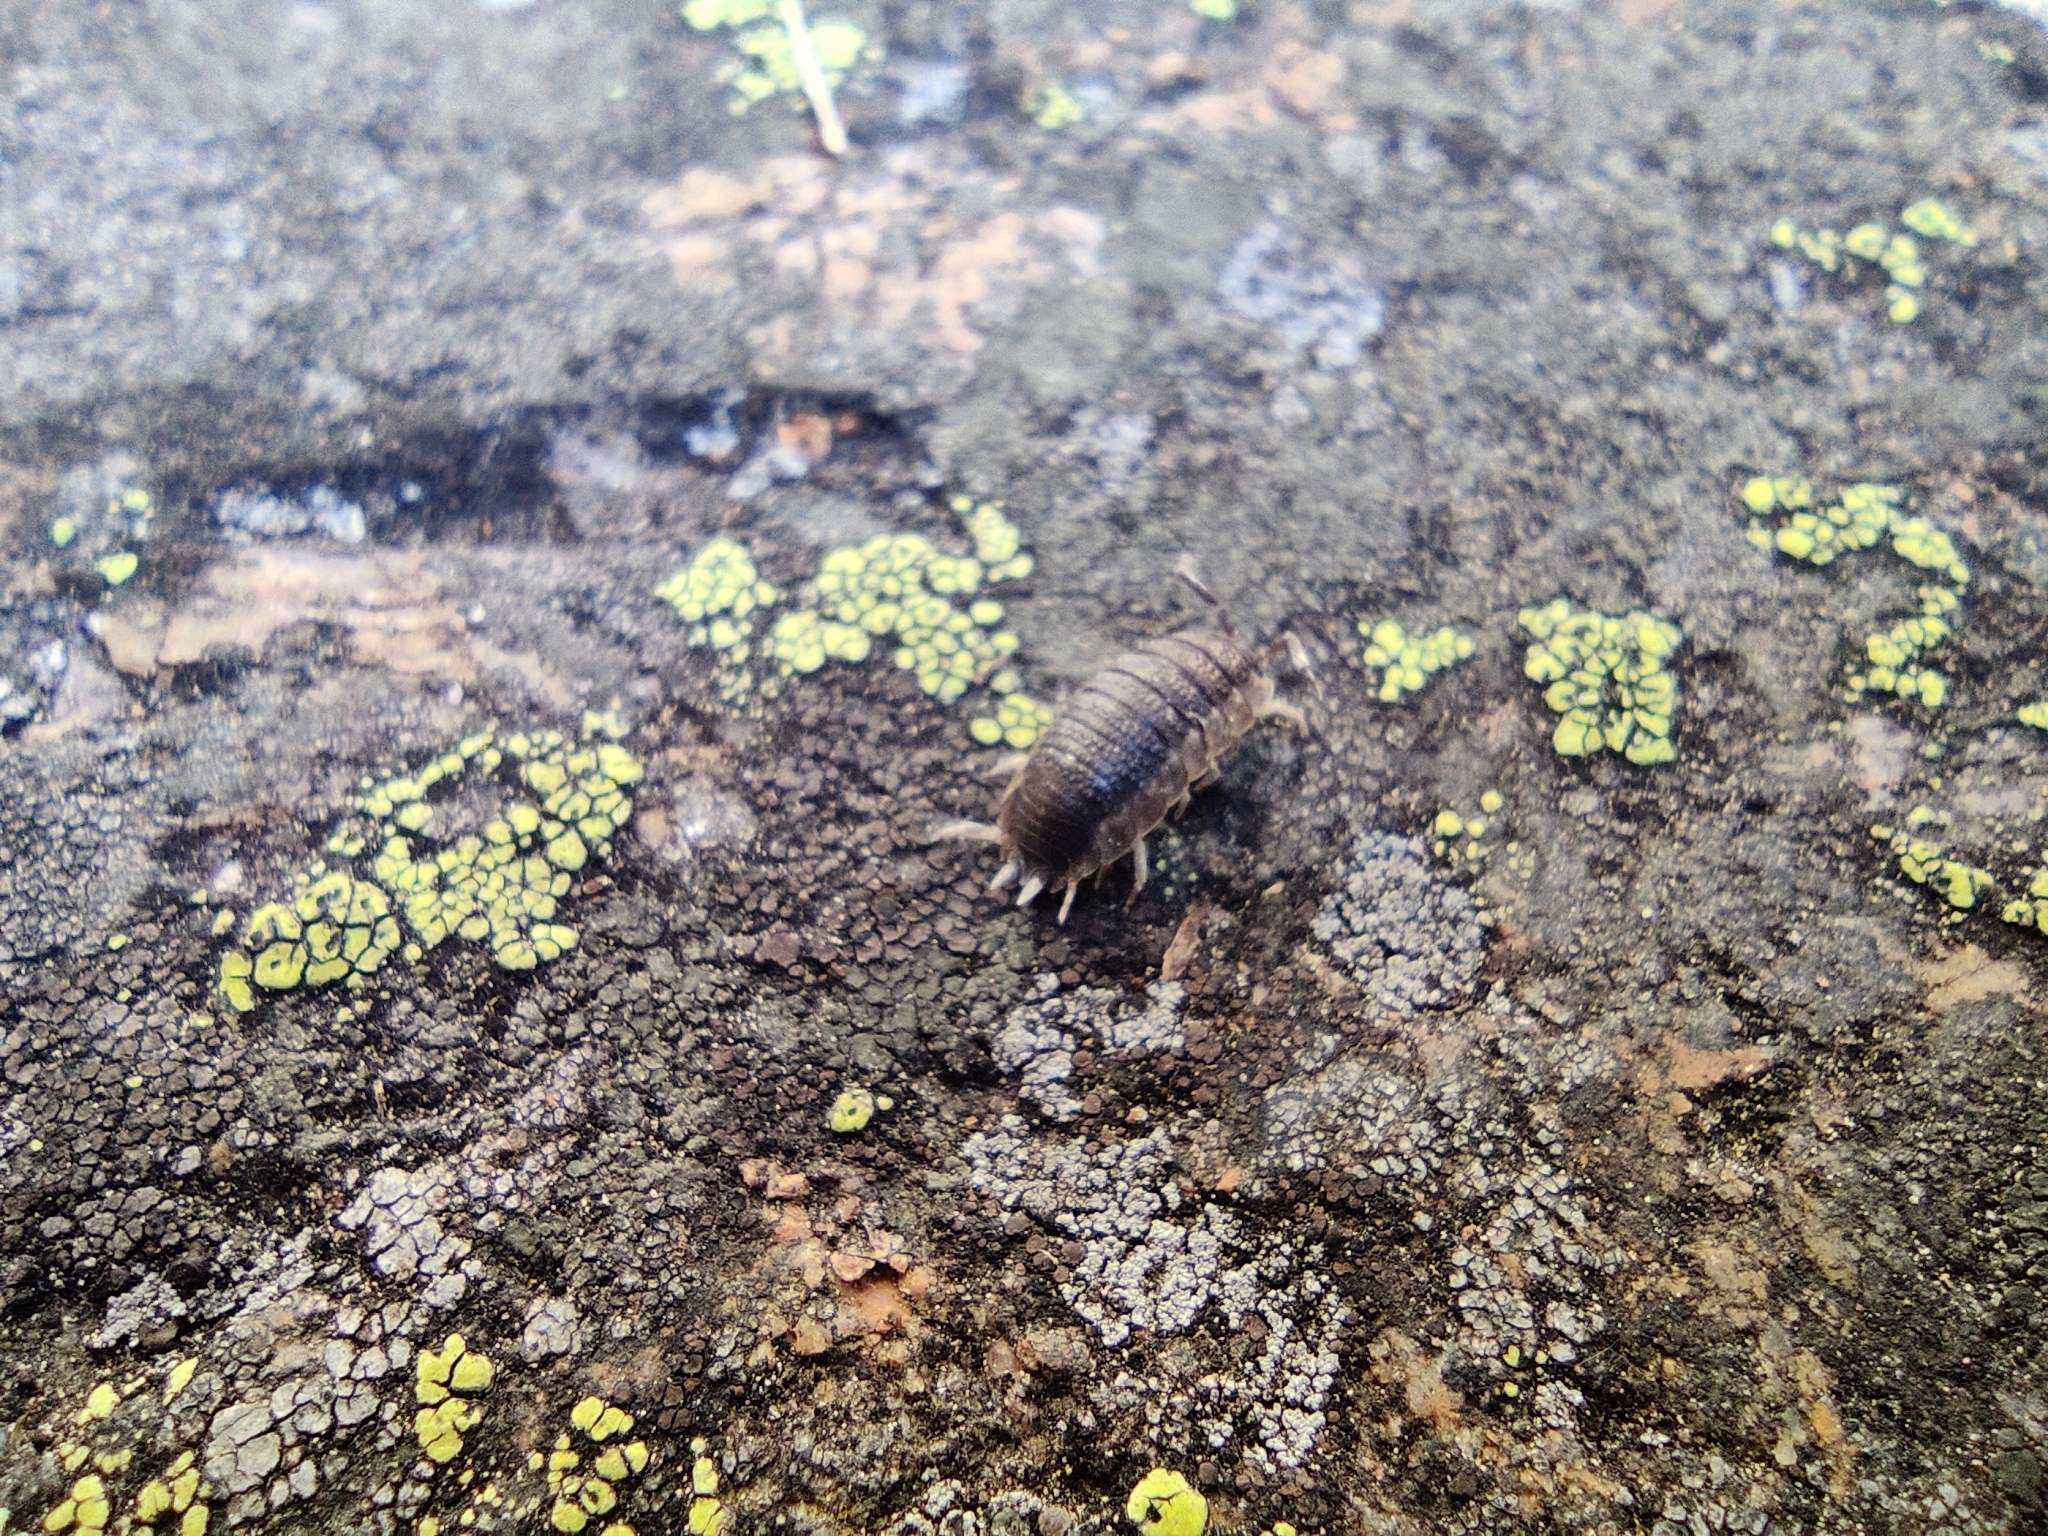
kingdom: Animalia
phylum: Arthropoda
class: Malacostraca
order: Isopoda
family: Porcellionidae
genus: Porcellio
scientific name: Porcellio scaber
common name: Common rough woodlouse
